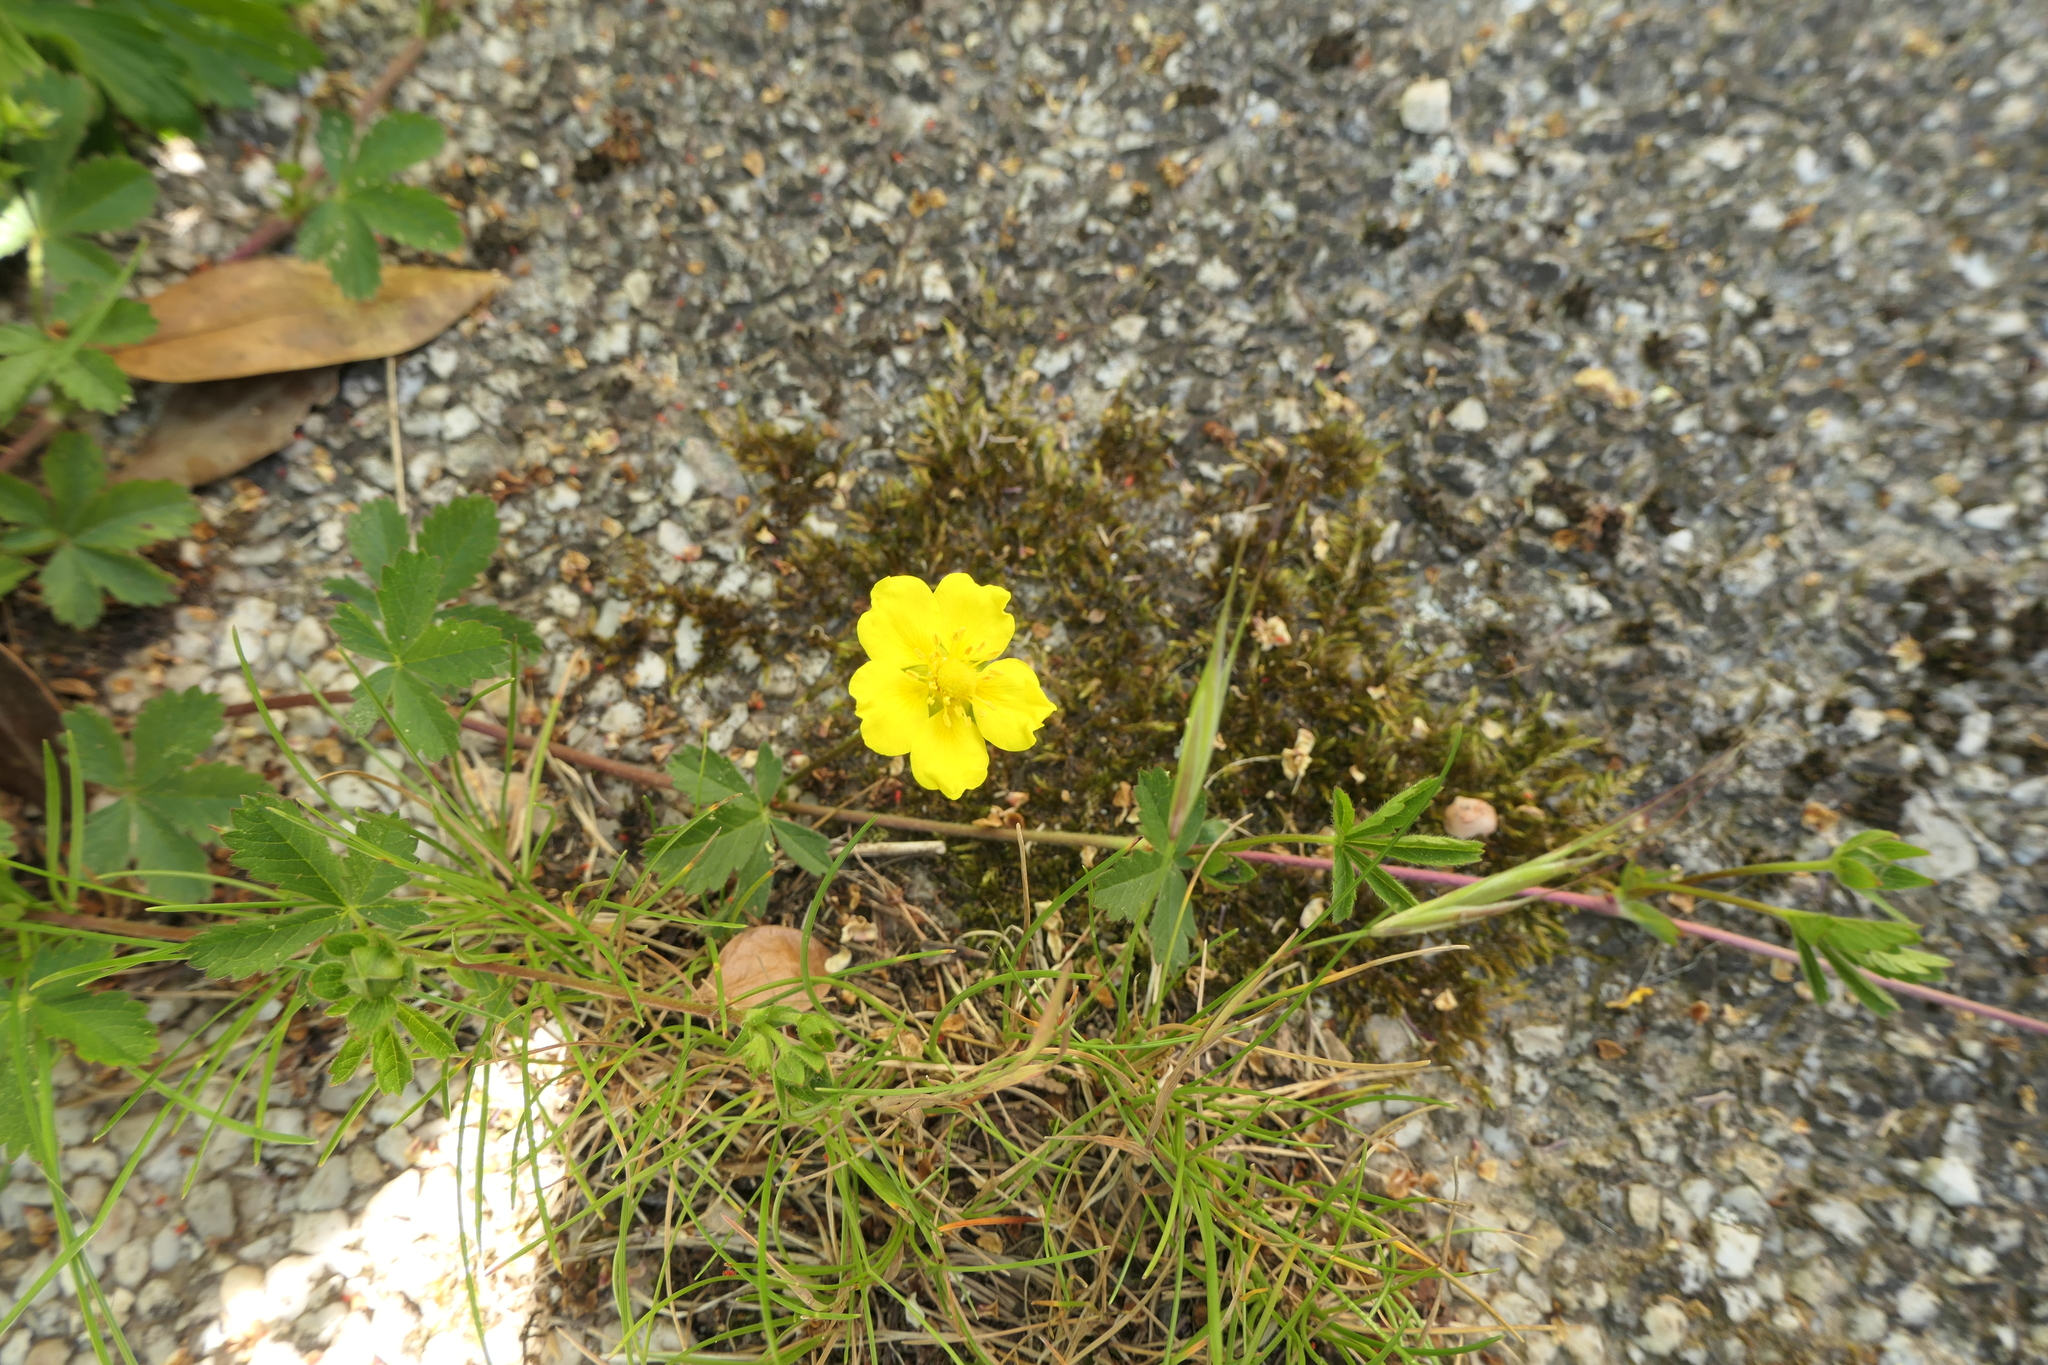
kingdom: Plantae
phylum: Tracheophyta
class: Magnoliopsida
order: Rosales
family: Rosaceae
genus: Potentilla
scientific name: Potentilla reptans
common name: Creeping cinquefoil
